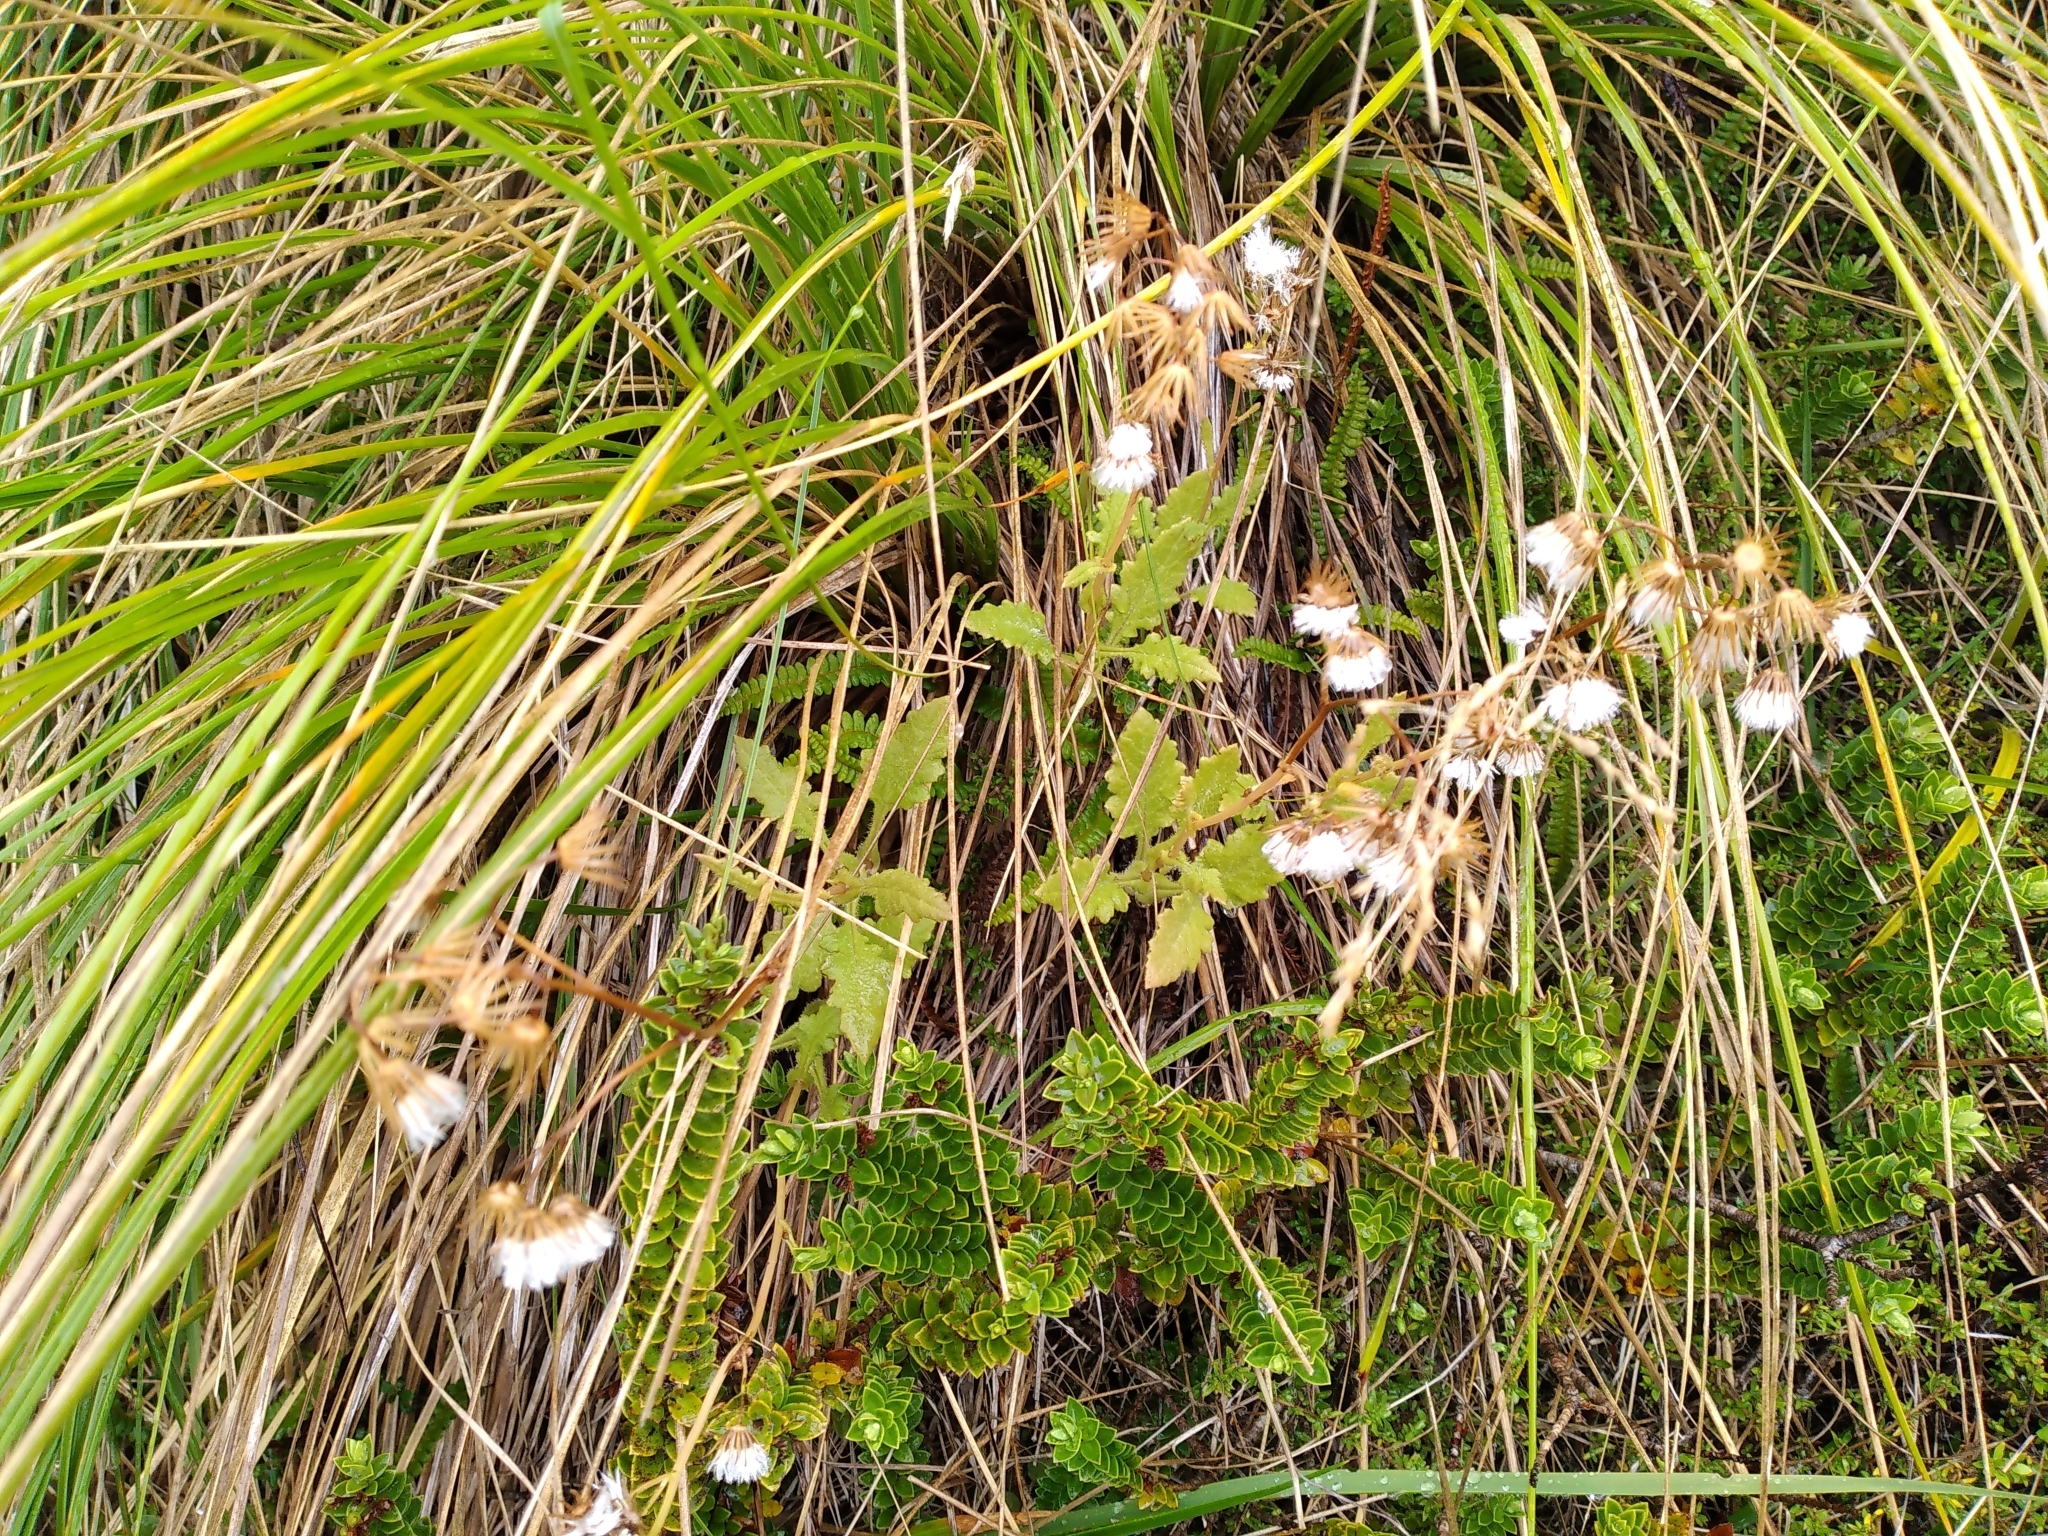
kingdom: Plantae
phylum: Tracheophyta
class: Magnoliopsida
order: Asterales
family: Asteraceae
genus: Senecio
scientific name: Senecio wairauensis
